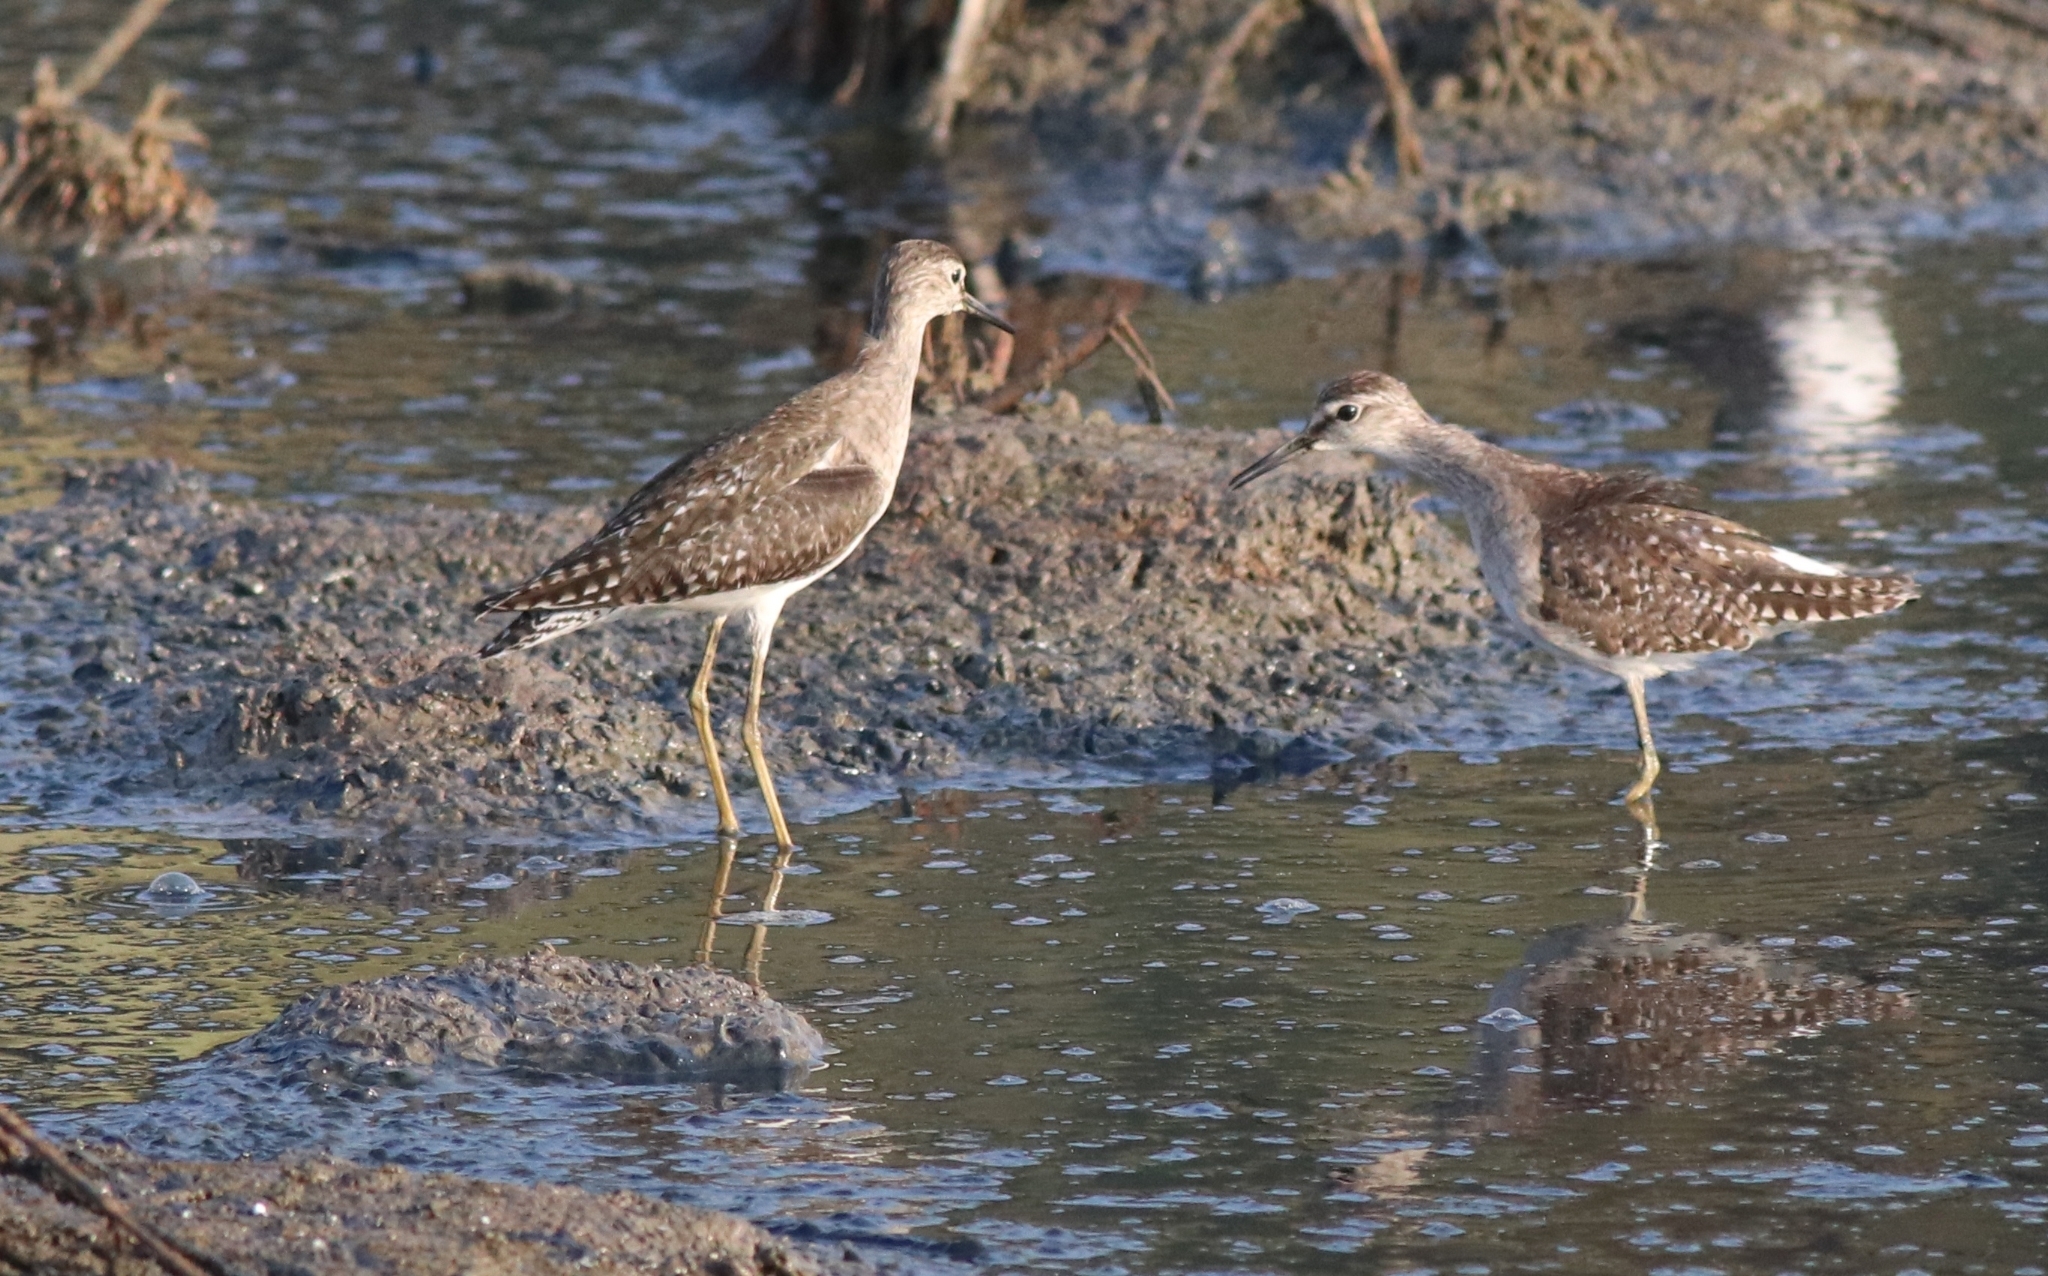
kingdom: Animalia
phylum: Chordata
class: Aves
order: Charadriiformes
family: Scolopacidae
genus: Tringa
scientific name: Tringa glareola
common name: Wood sandpiper
